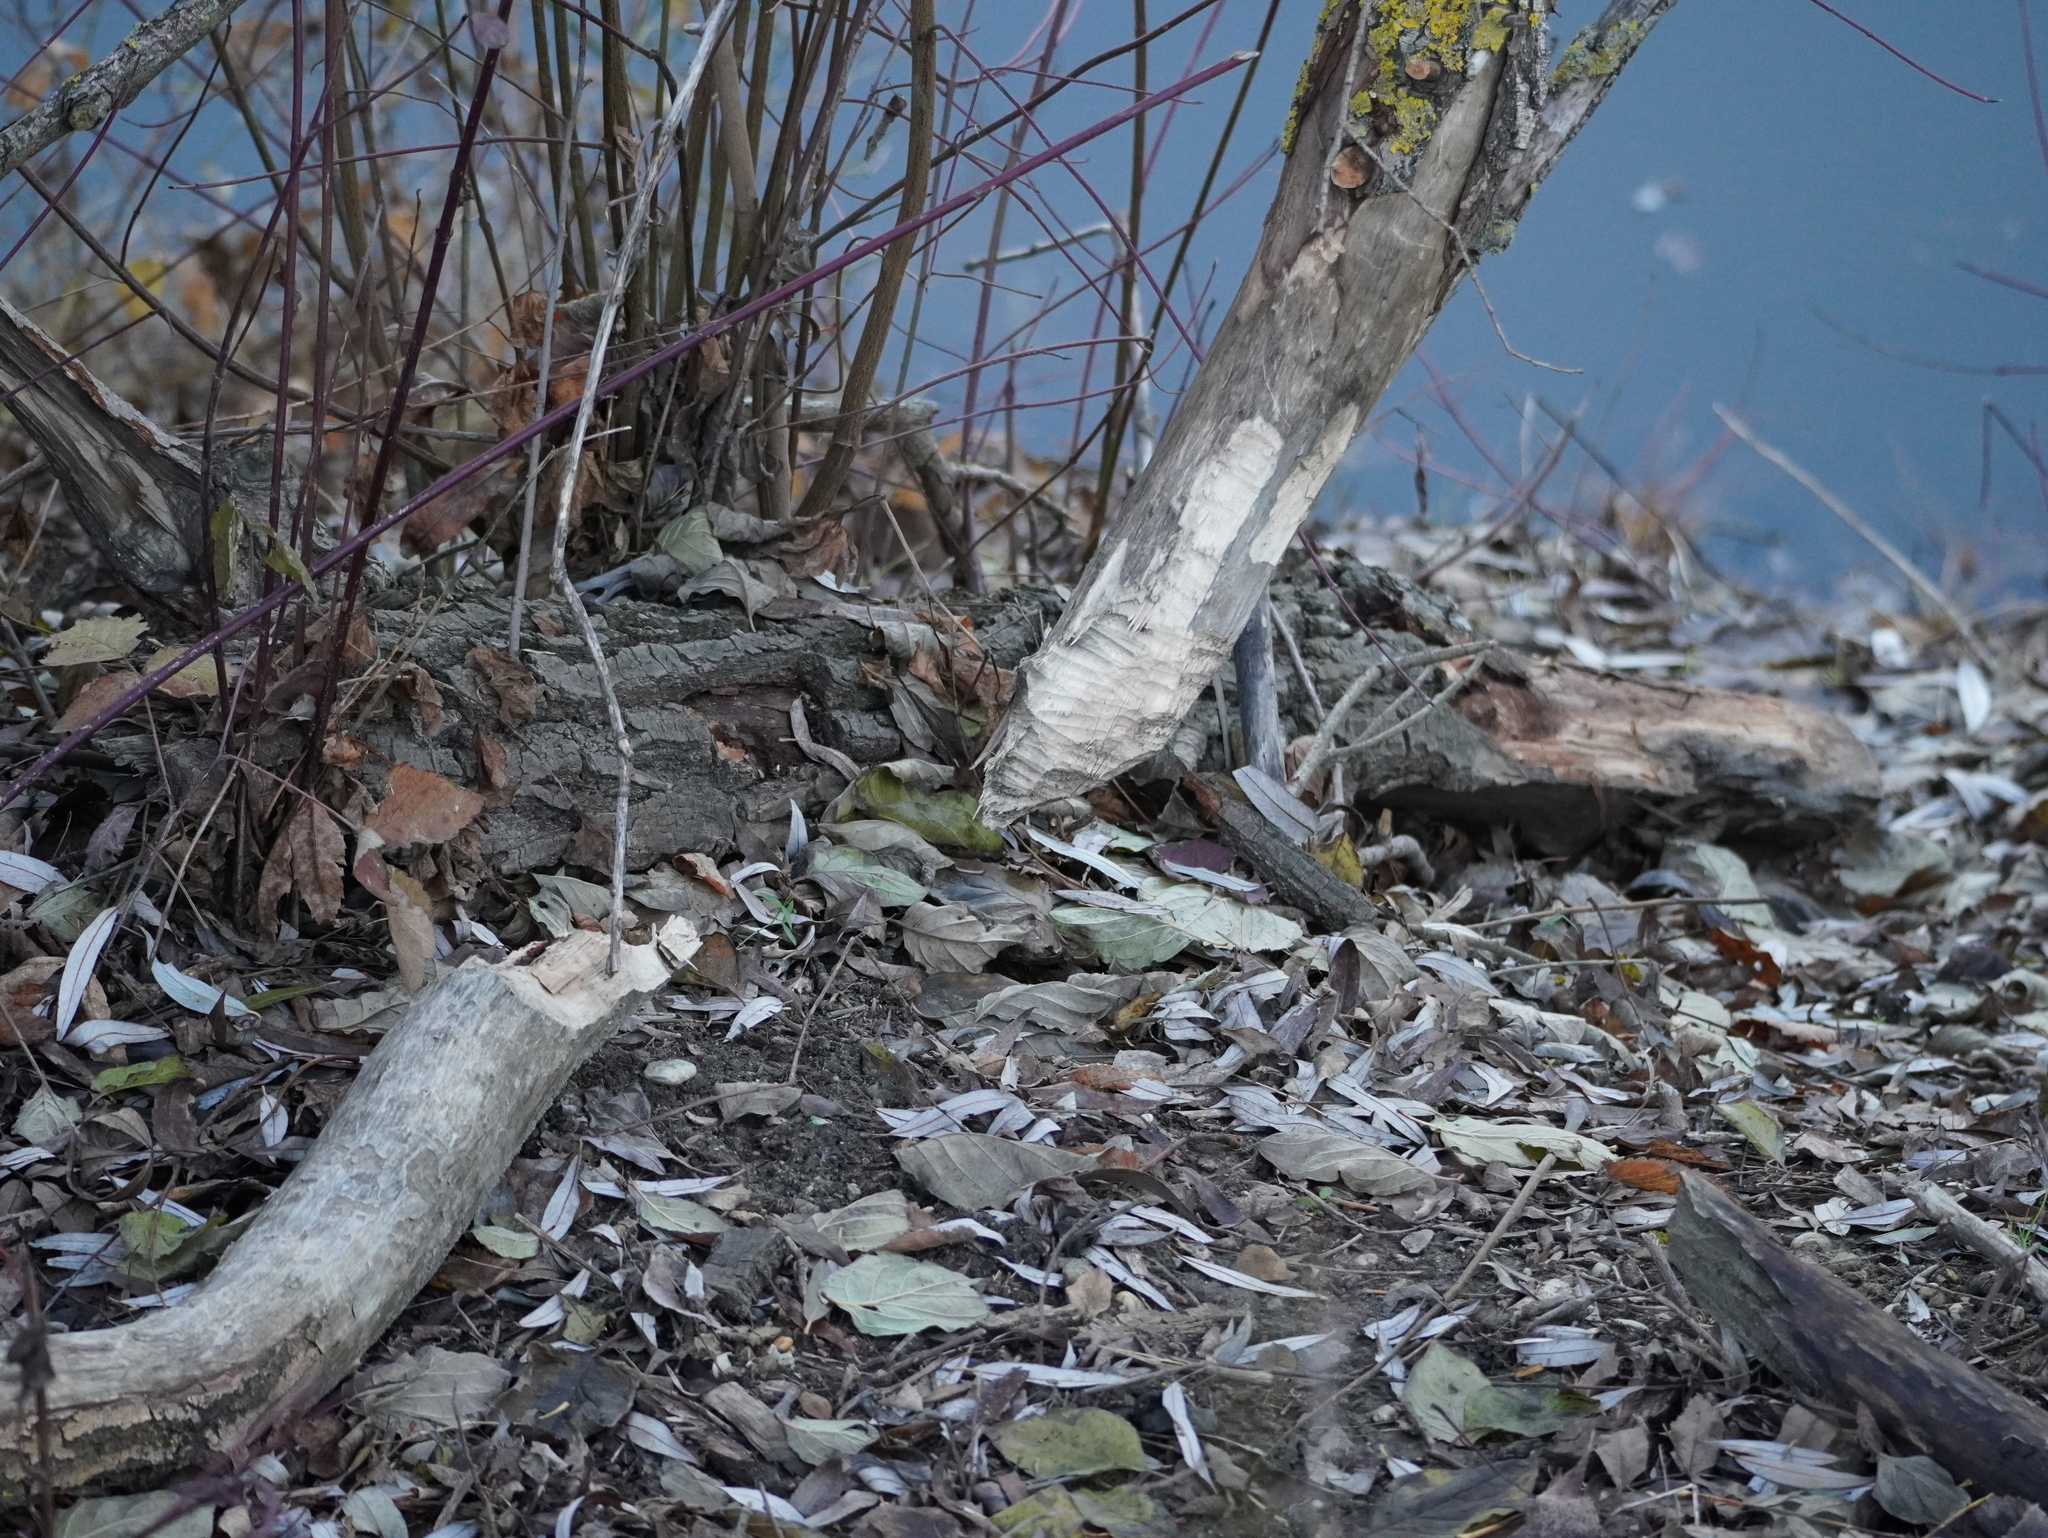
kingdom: Animalia
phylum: Chordata
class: Mammalia
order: Rodentia
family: Castoridae
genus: Castor
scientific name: Castor fiber
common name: Eurasian beaver
